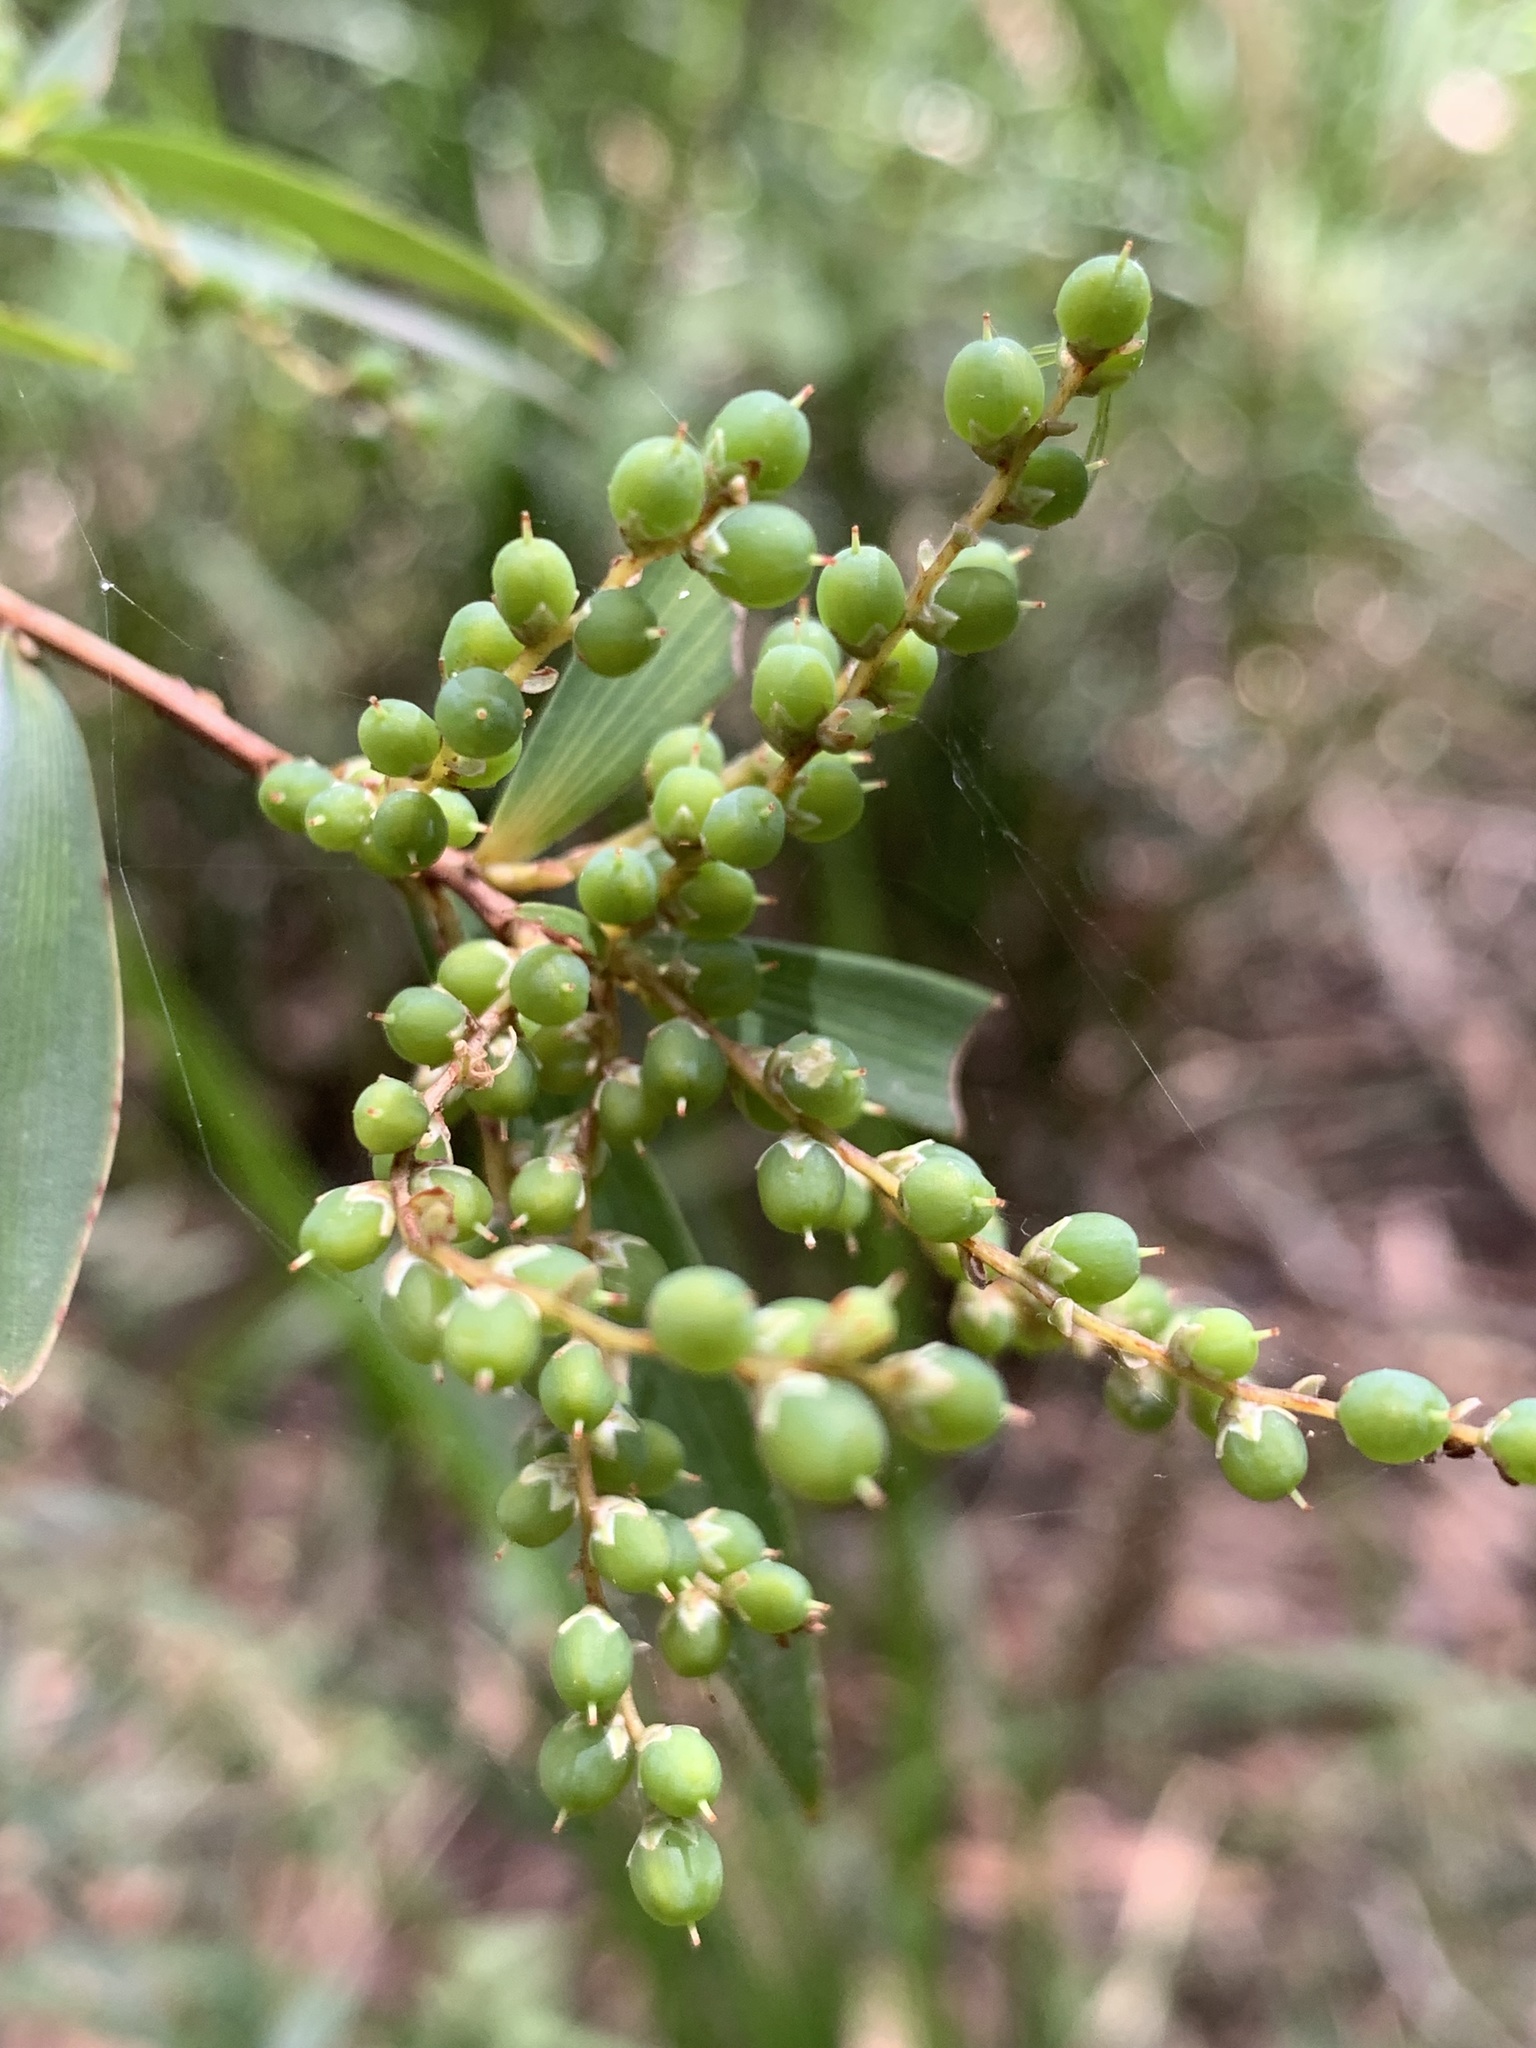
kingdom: Plantae
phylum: Tracheophyta
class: Magnoliopsida
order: Ericales
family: Ericaceae
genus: Leucopogon
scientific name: Leucopogon lanceolatus
